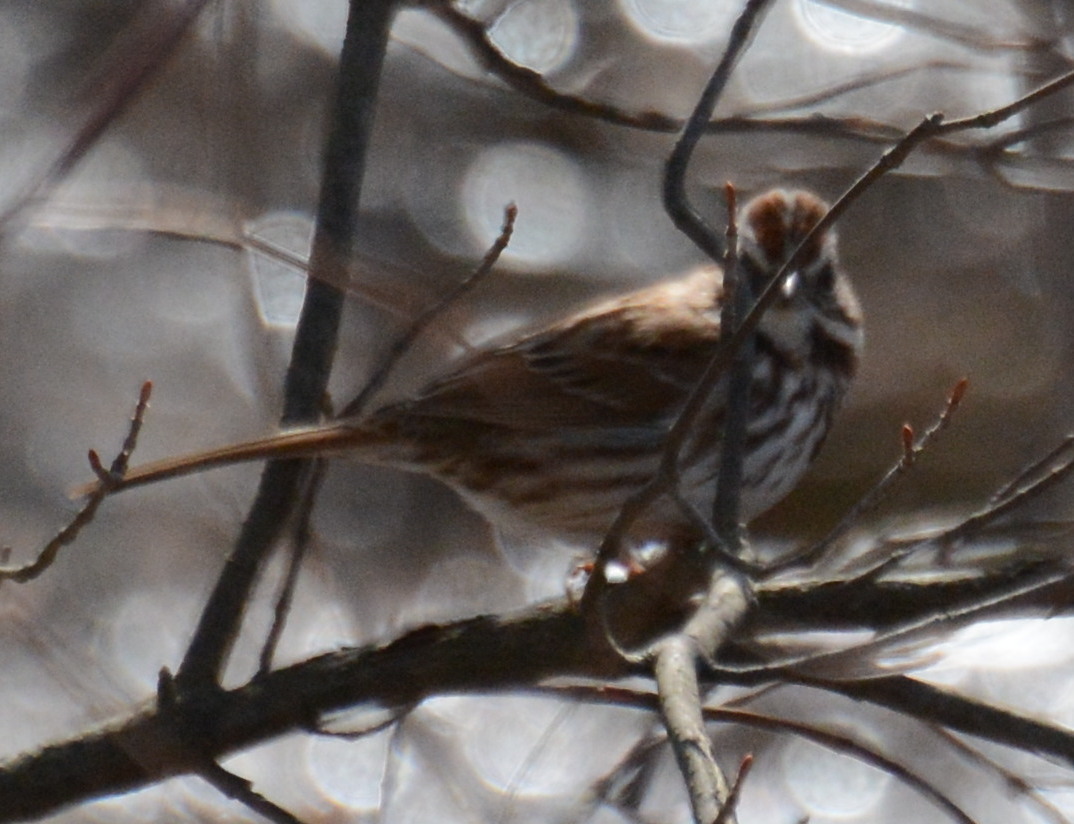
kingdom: Animalia
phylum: Chordata
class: Aves
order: Passeriformes
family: Passerellidae
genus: Melospiza
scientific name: Melospiza melodia
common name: Song sparrow
